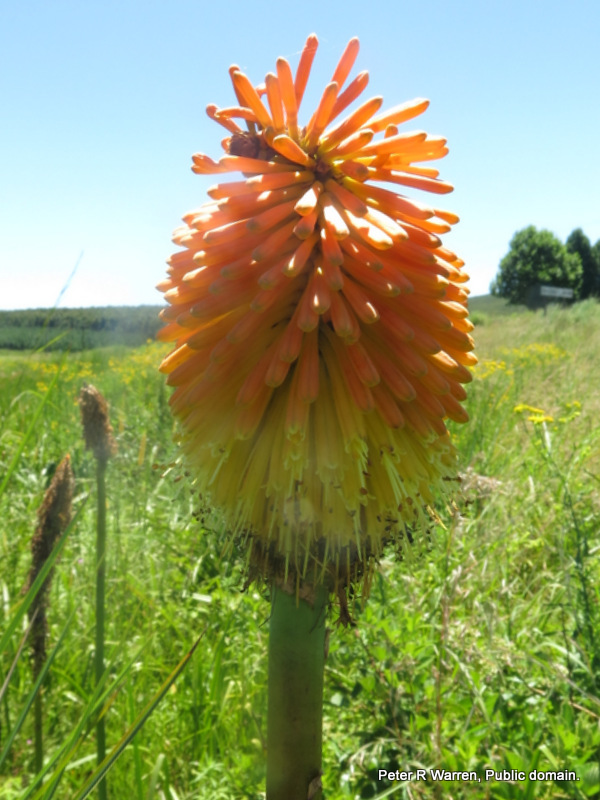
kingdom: Plantae
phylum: Tracheophyta
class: Liliopsida
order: Asparagales
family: Asphodelaceae
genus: Kniphofia
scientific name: Kniphofia tysonii
